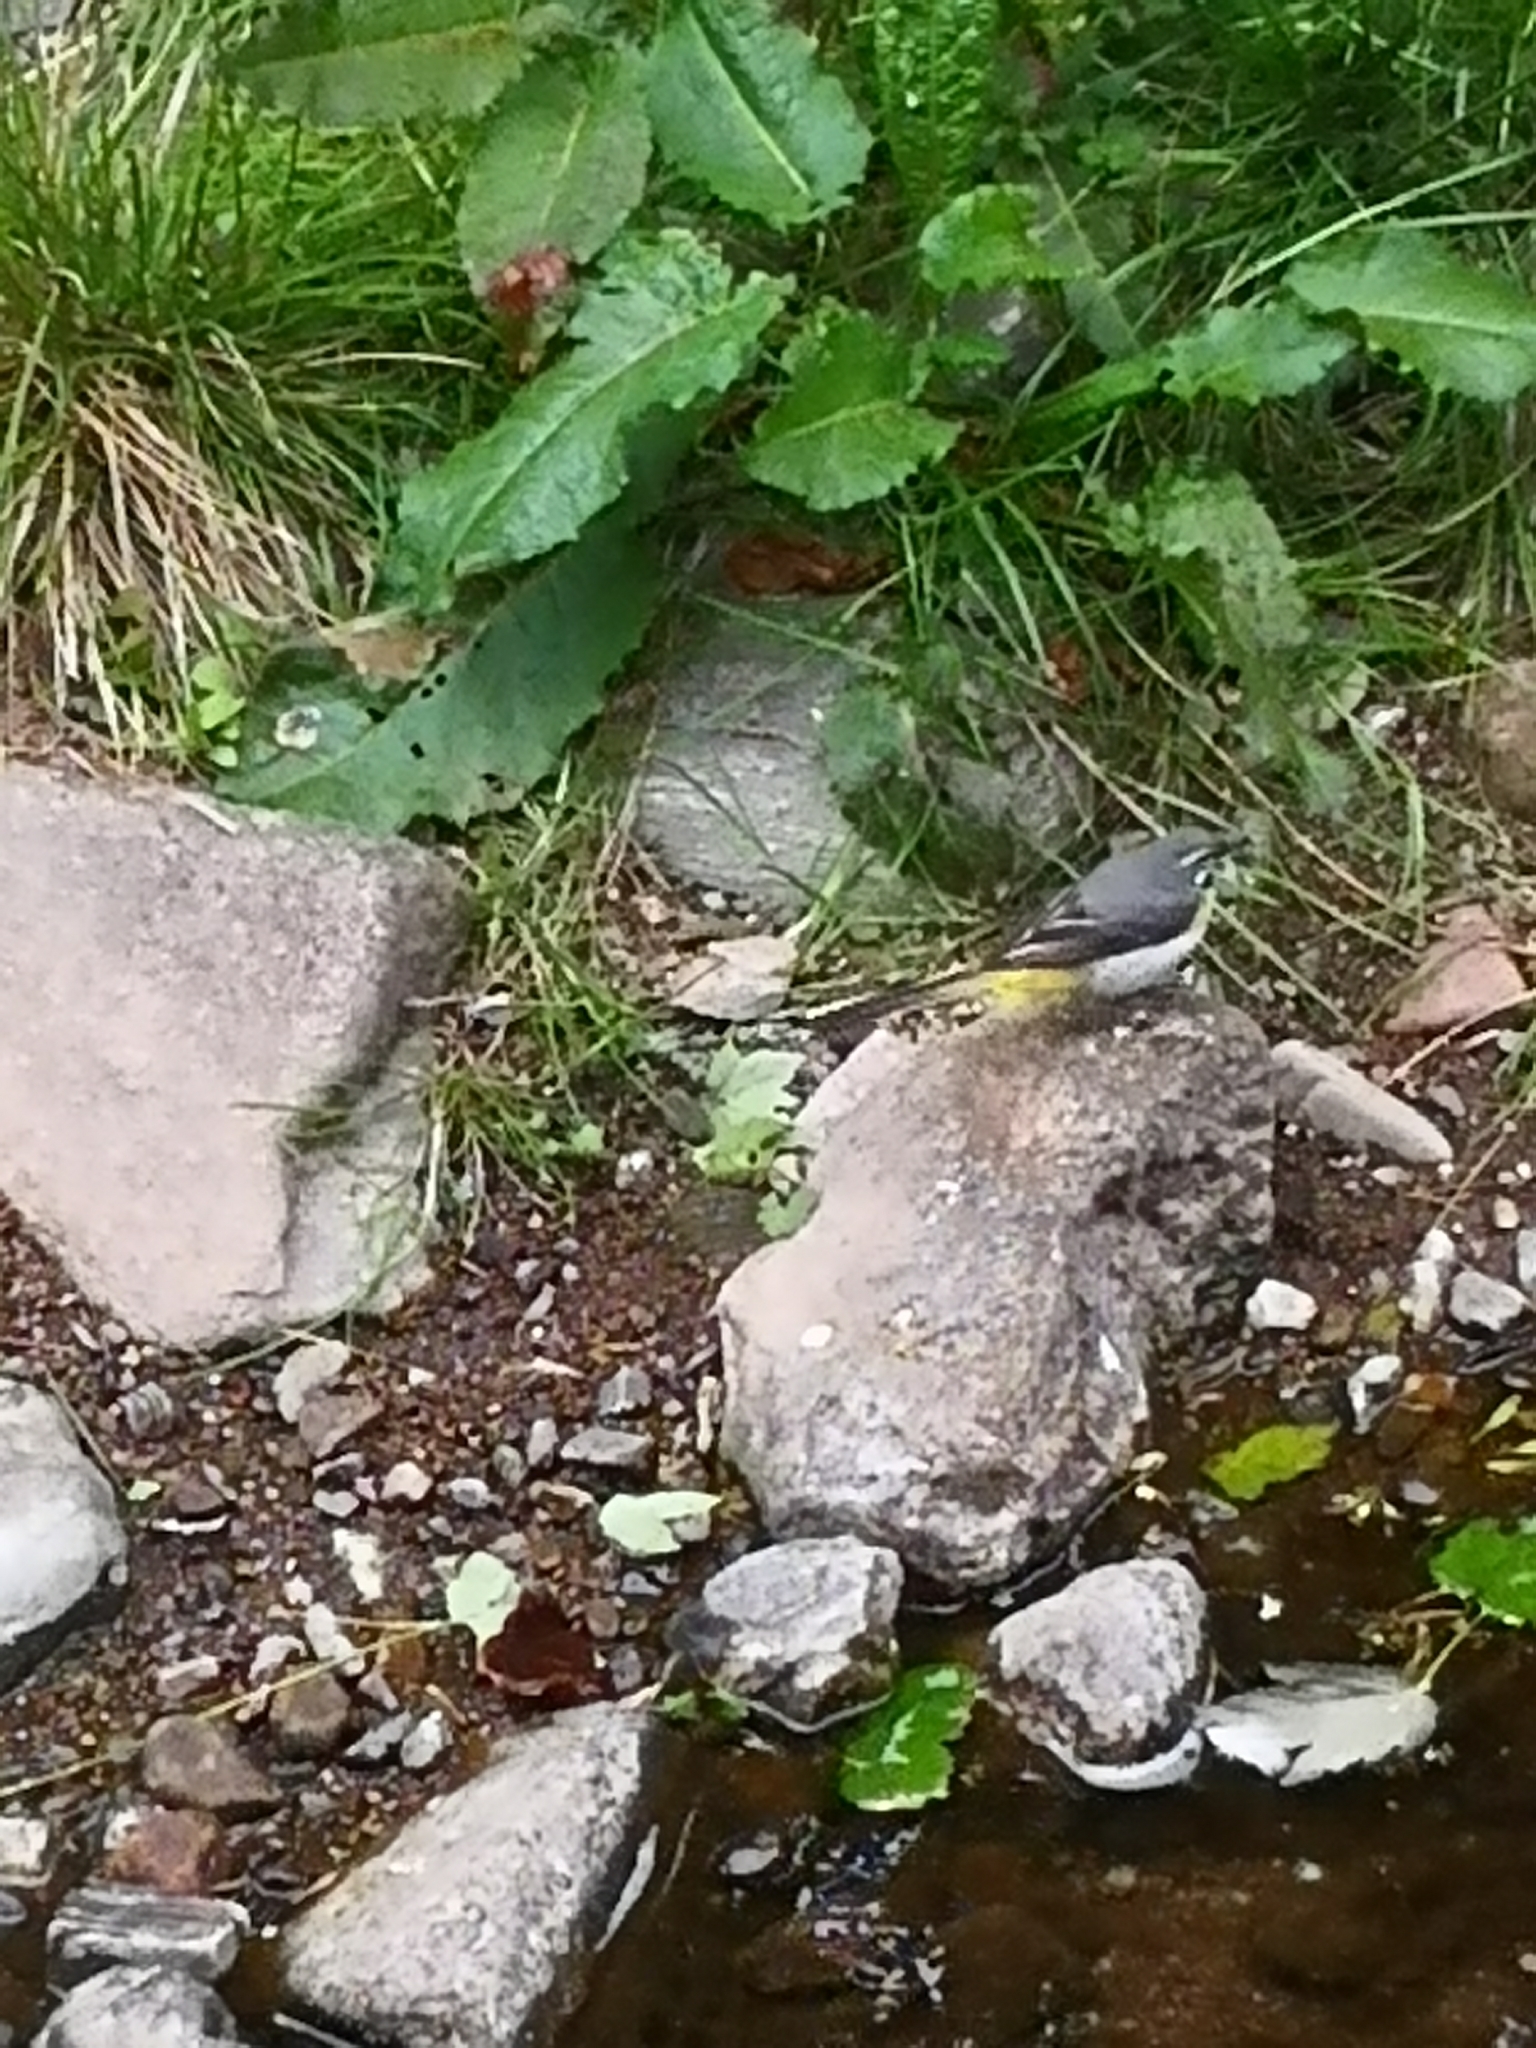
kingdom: Animalia
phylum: Chordata
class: Aves
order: Passeriformes
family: Motacillidae
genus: Motacilla
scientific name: Motacilla cinerea
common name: Grey wagtail
